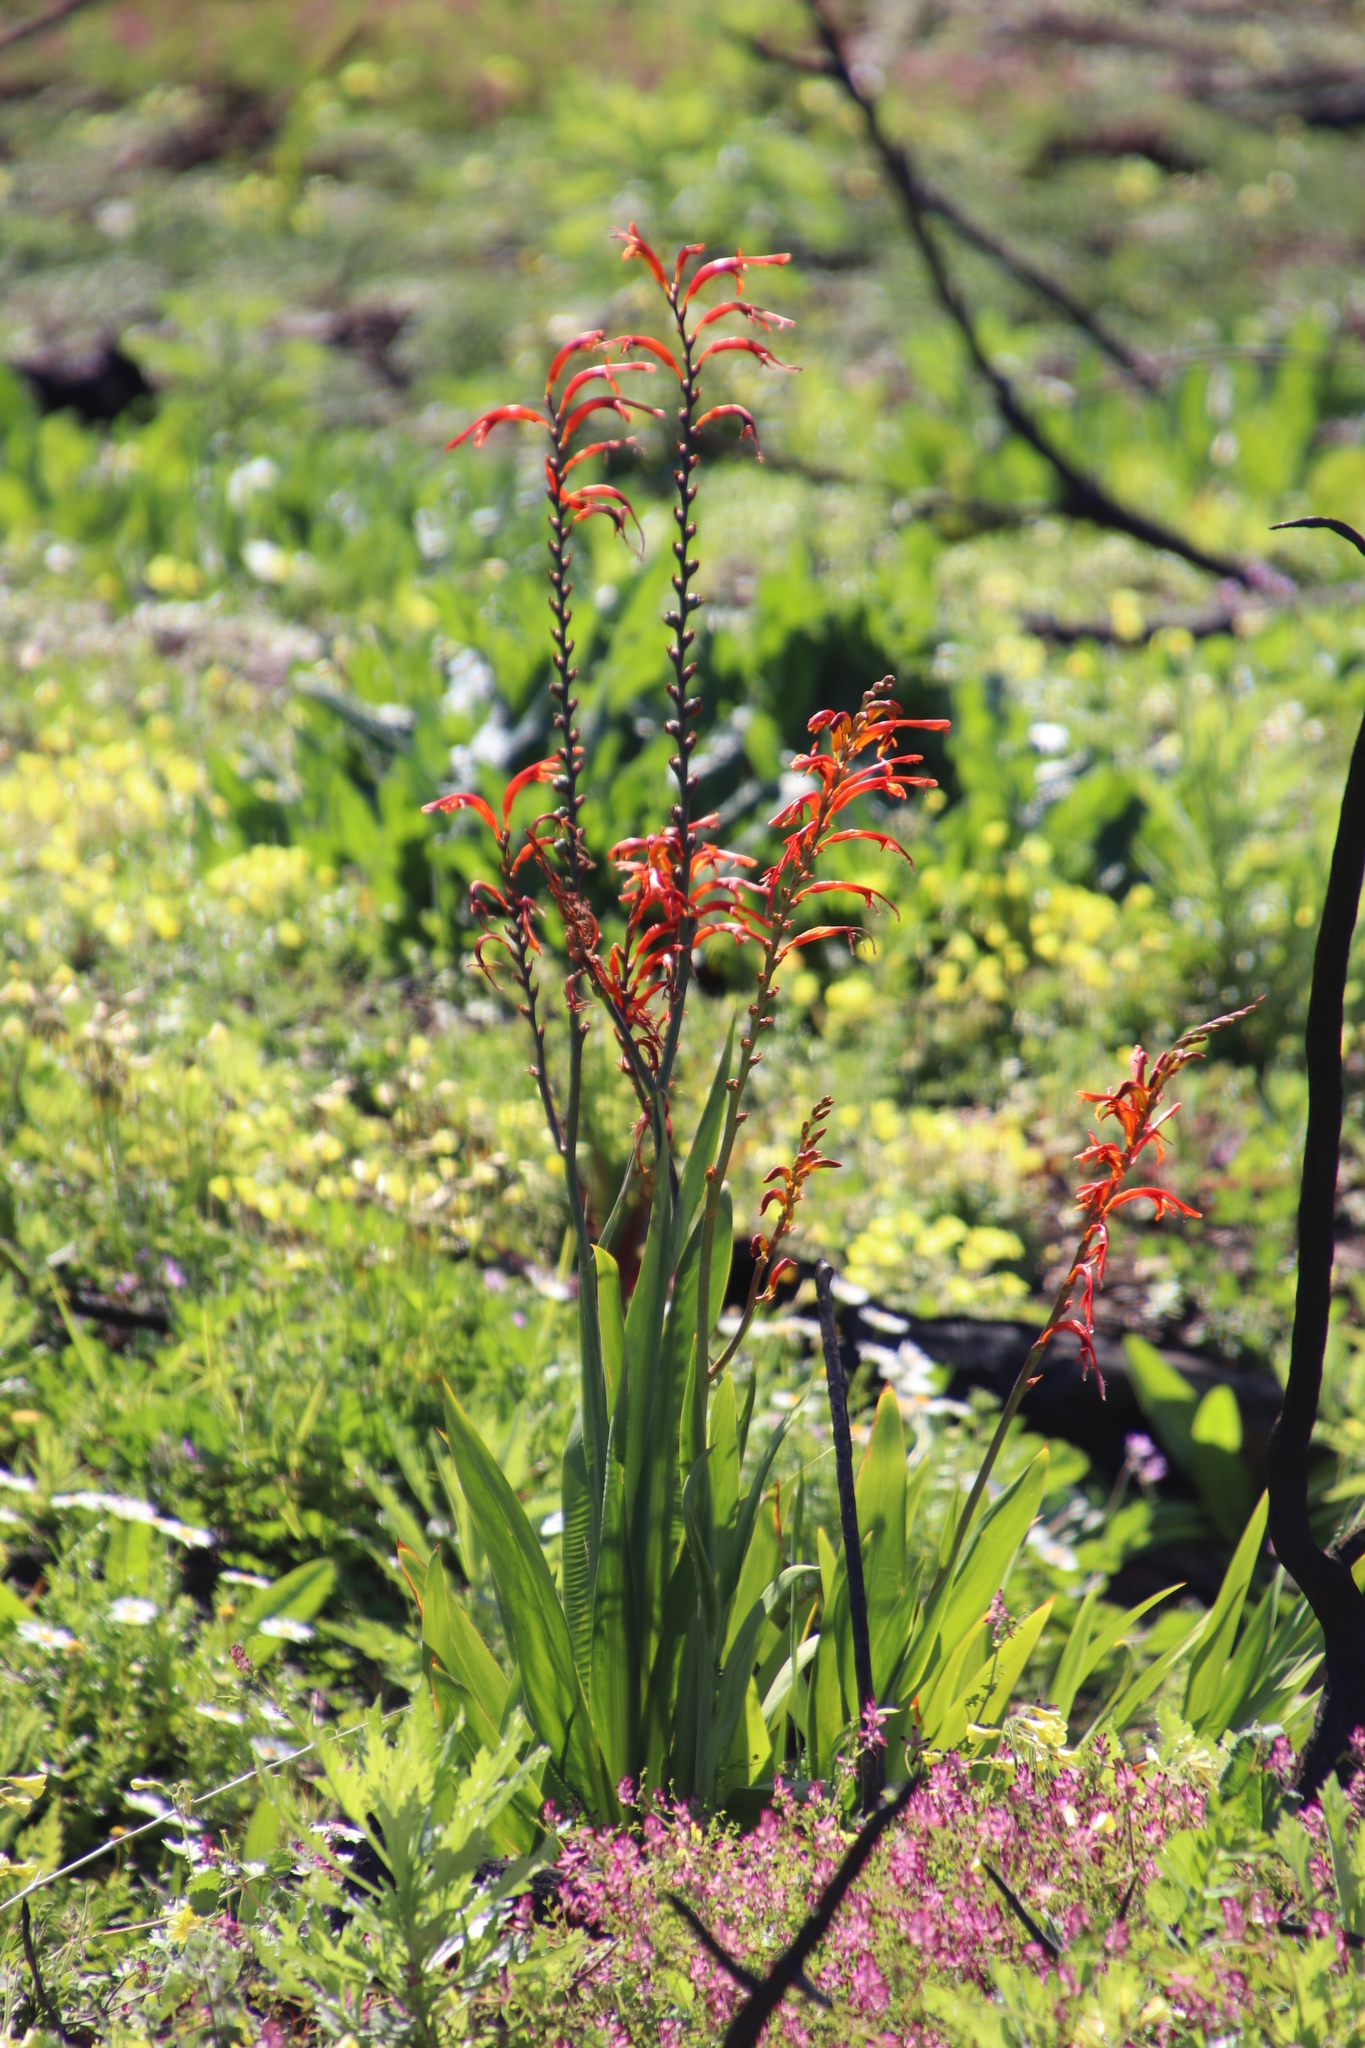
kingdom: Plantae
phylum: Tracheophyta
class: Liliopsida
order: Asparagales
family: Iridaceae
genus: Chasmanthe
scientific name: Chasmanthe floribunda
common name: African cornflag
